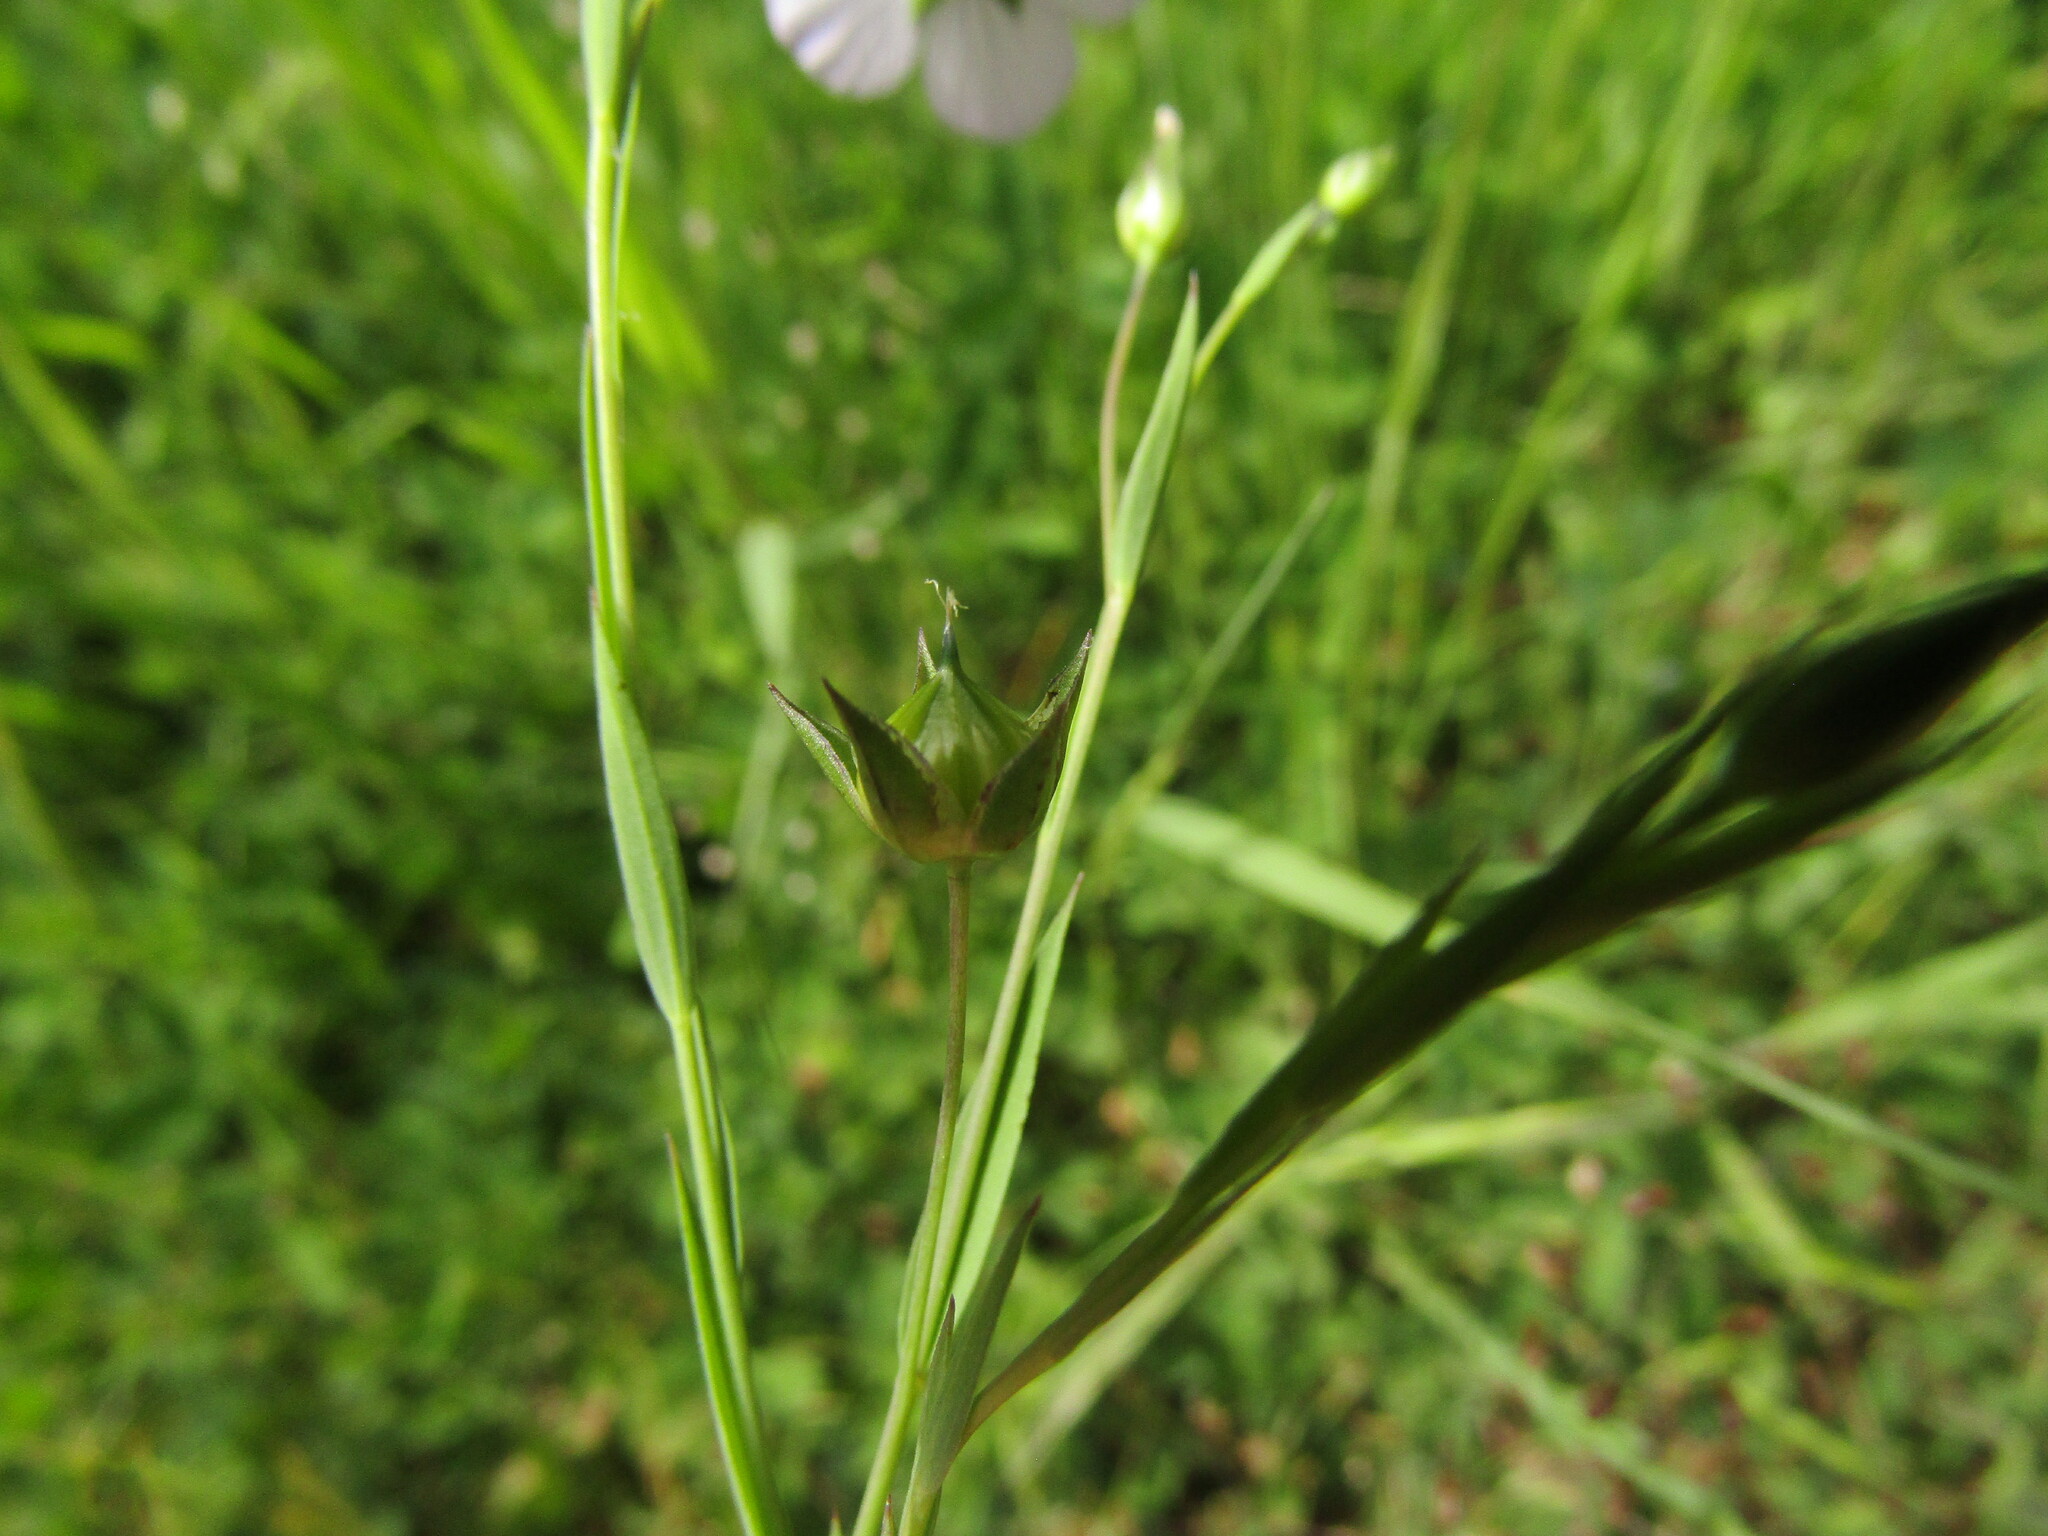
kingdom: Plantae
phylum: Tracheophyta
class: Magnoliopsida
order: Malpighiales
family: Linaceae
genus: Linum
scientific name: Linum bienne
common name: Pale flax
